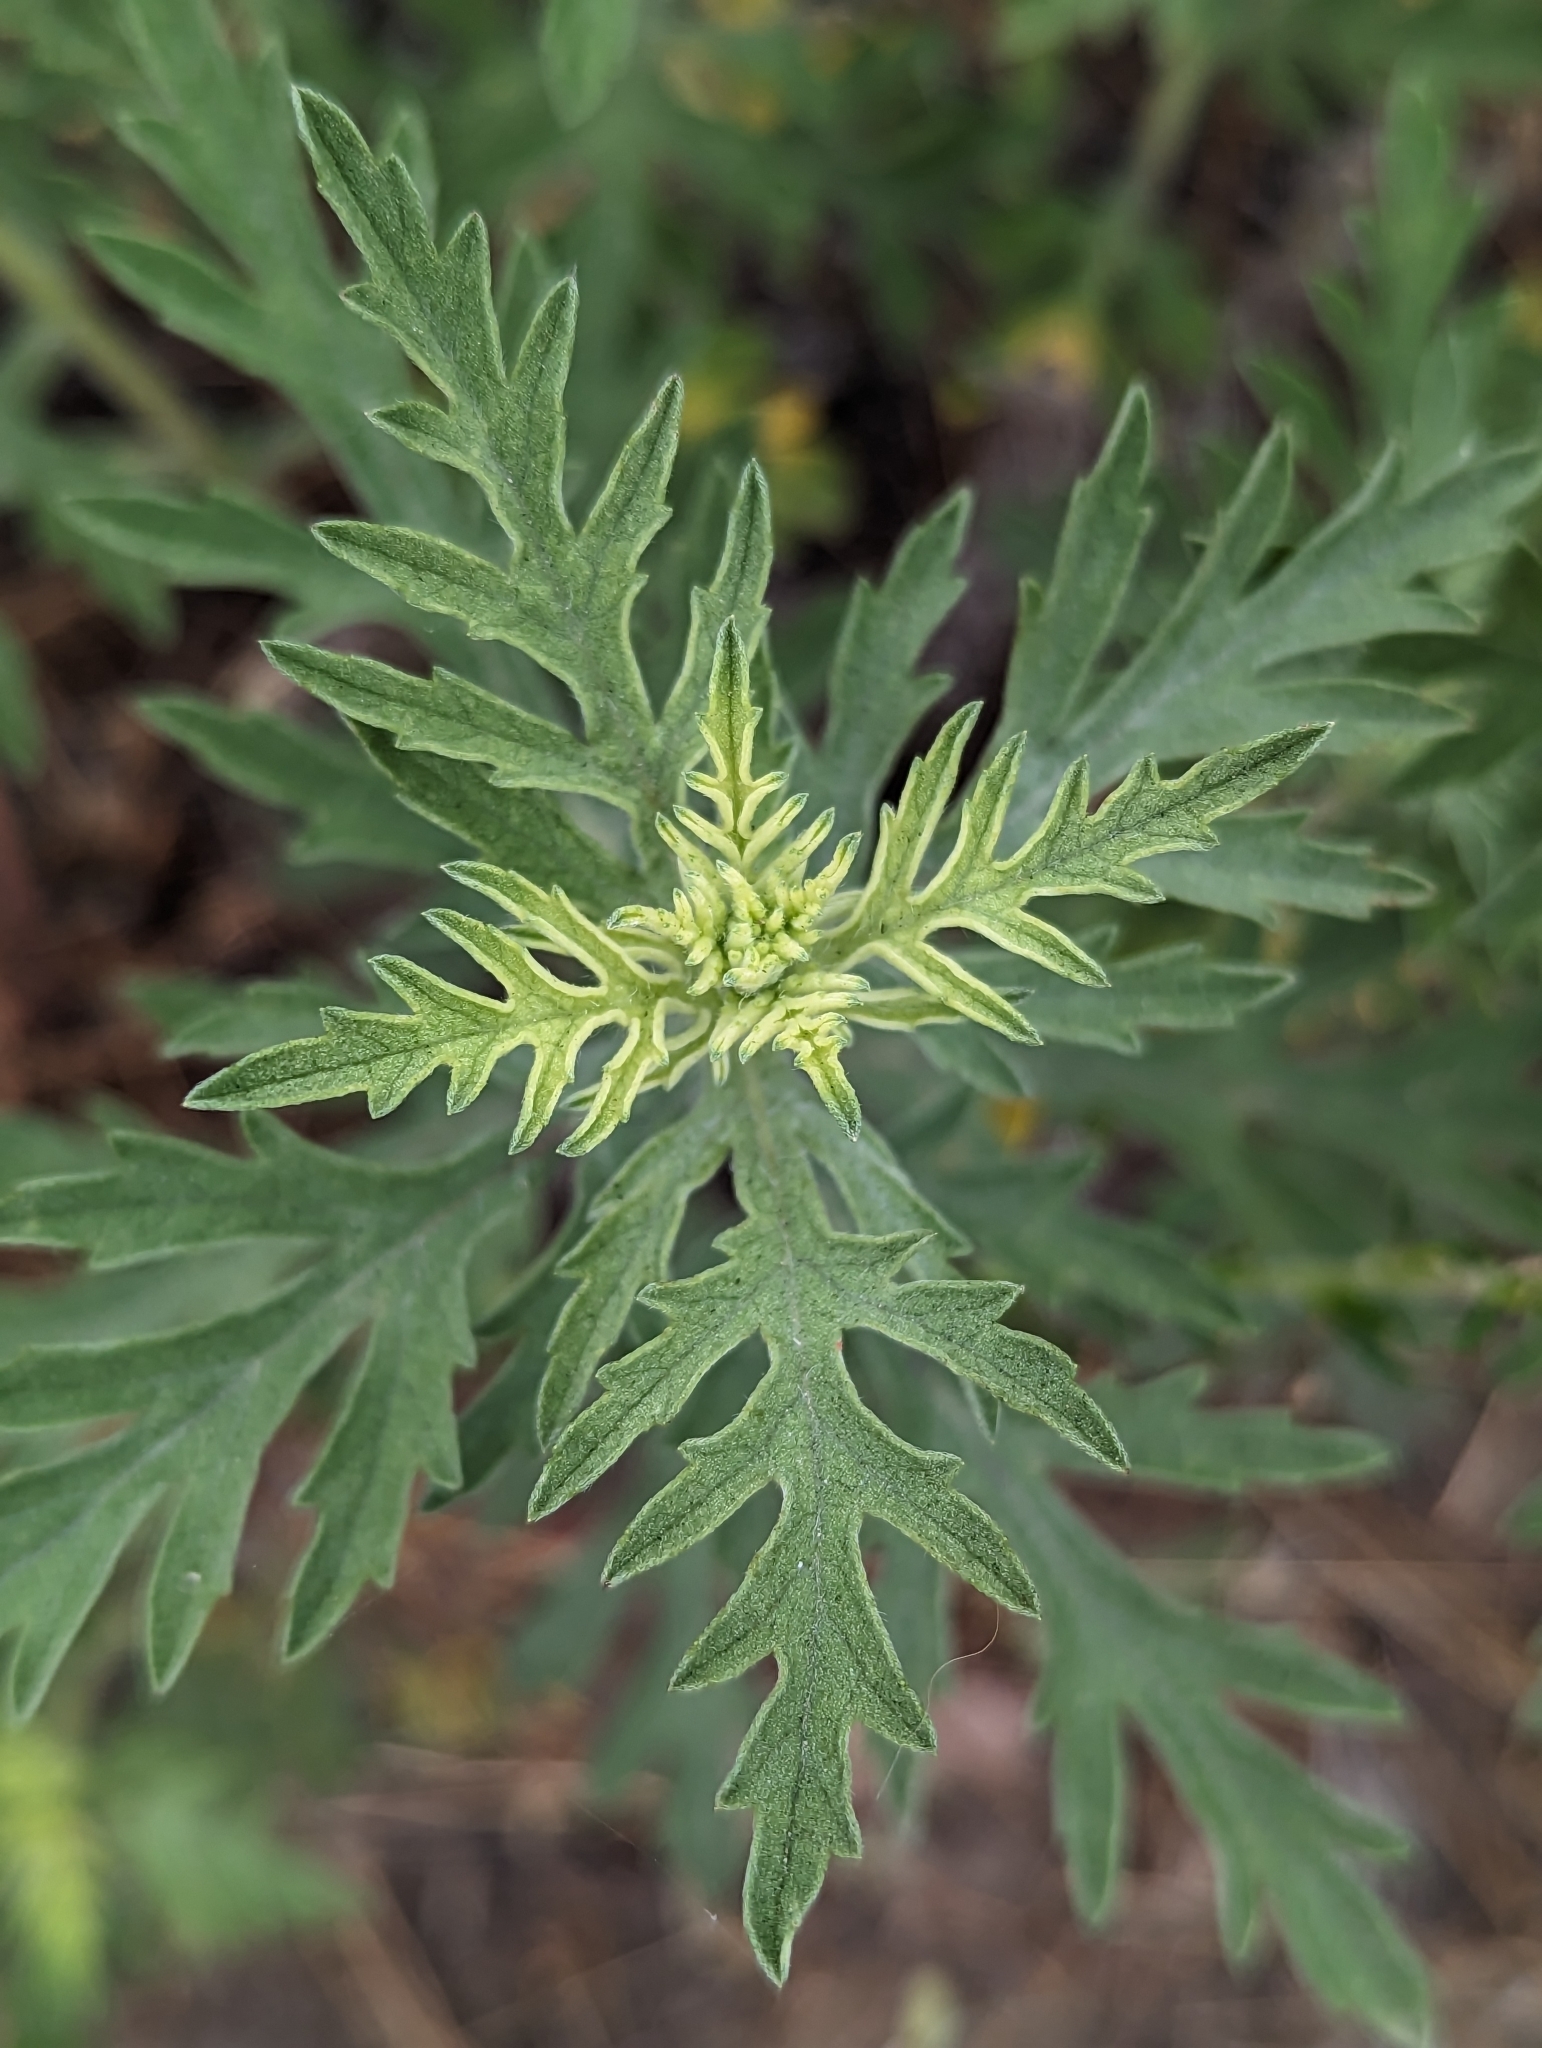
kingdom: Plantae
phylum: Tracheophyta
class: Magnoliopsida
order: Asterales
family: Asteraceae
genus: Ambrosia
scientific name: Ambrosia psilostachya
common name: Perennial ragweed
